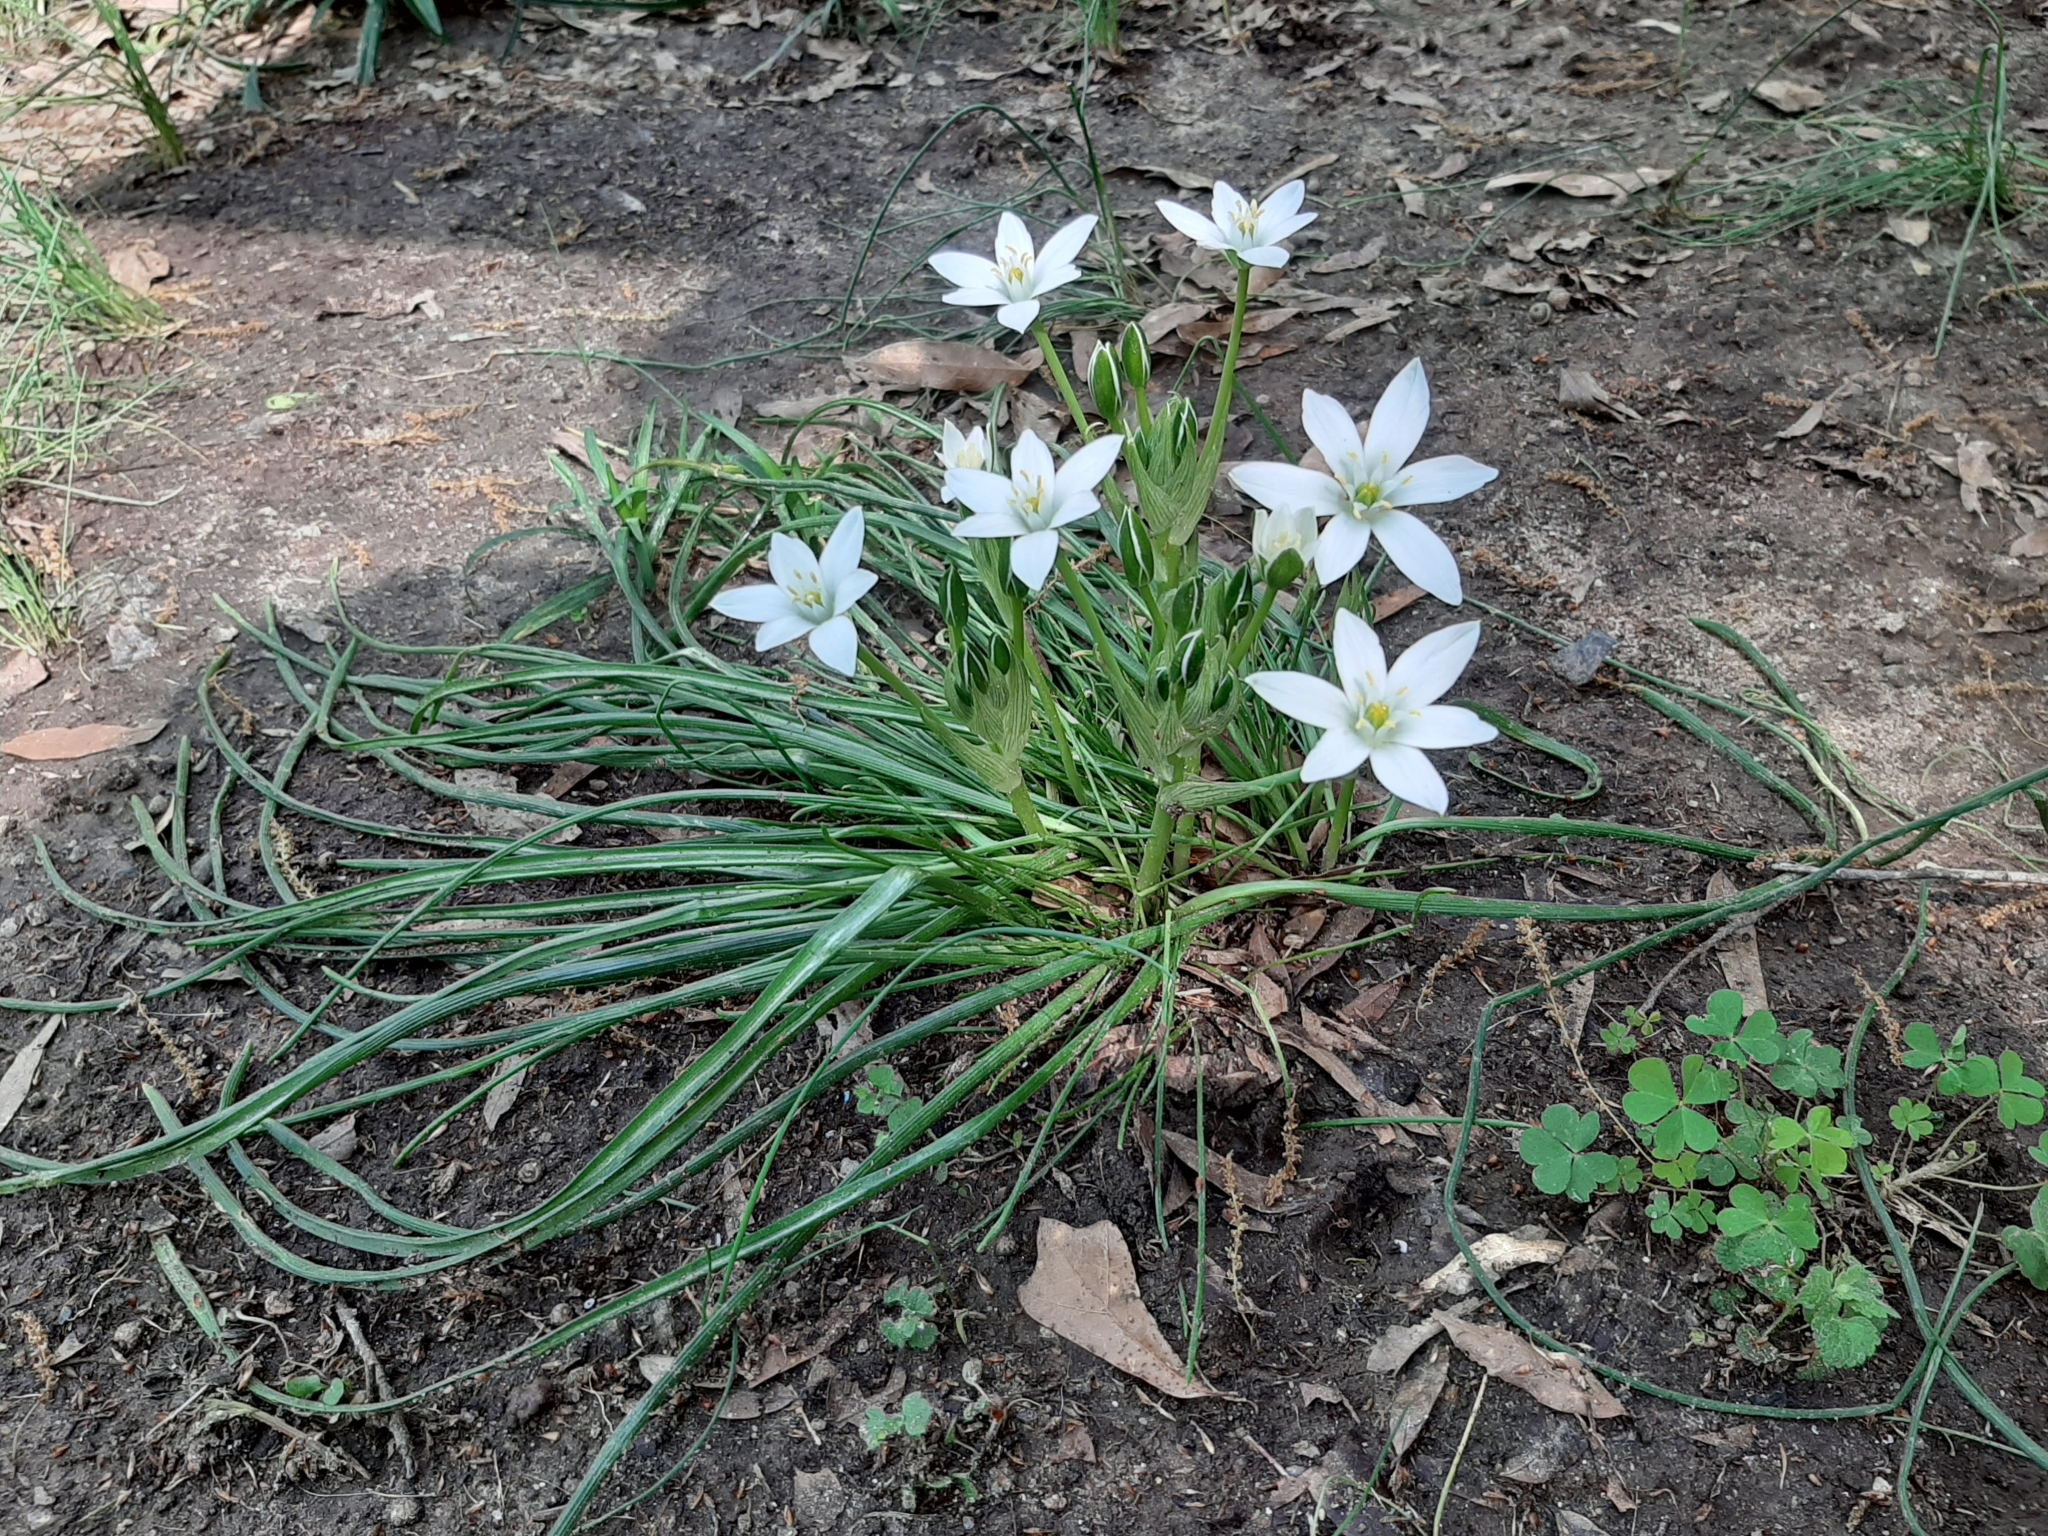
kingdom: Plantae
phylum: Tracheophyta
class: Liliopsida
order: Asparagales
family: Asparagaceae
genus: Ornithogalum
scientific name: Ornithogalum umbellatum
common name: Garden star-of-bethlehem
